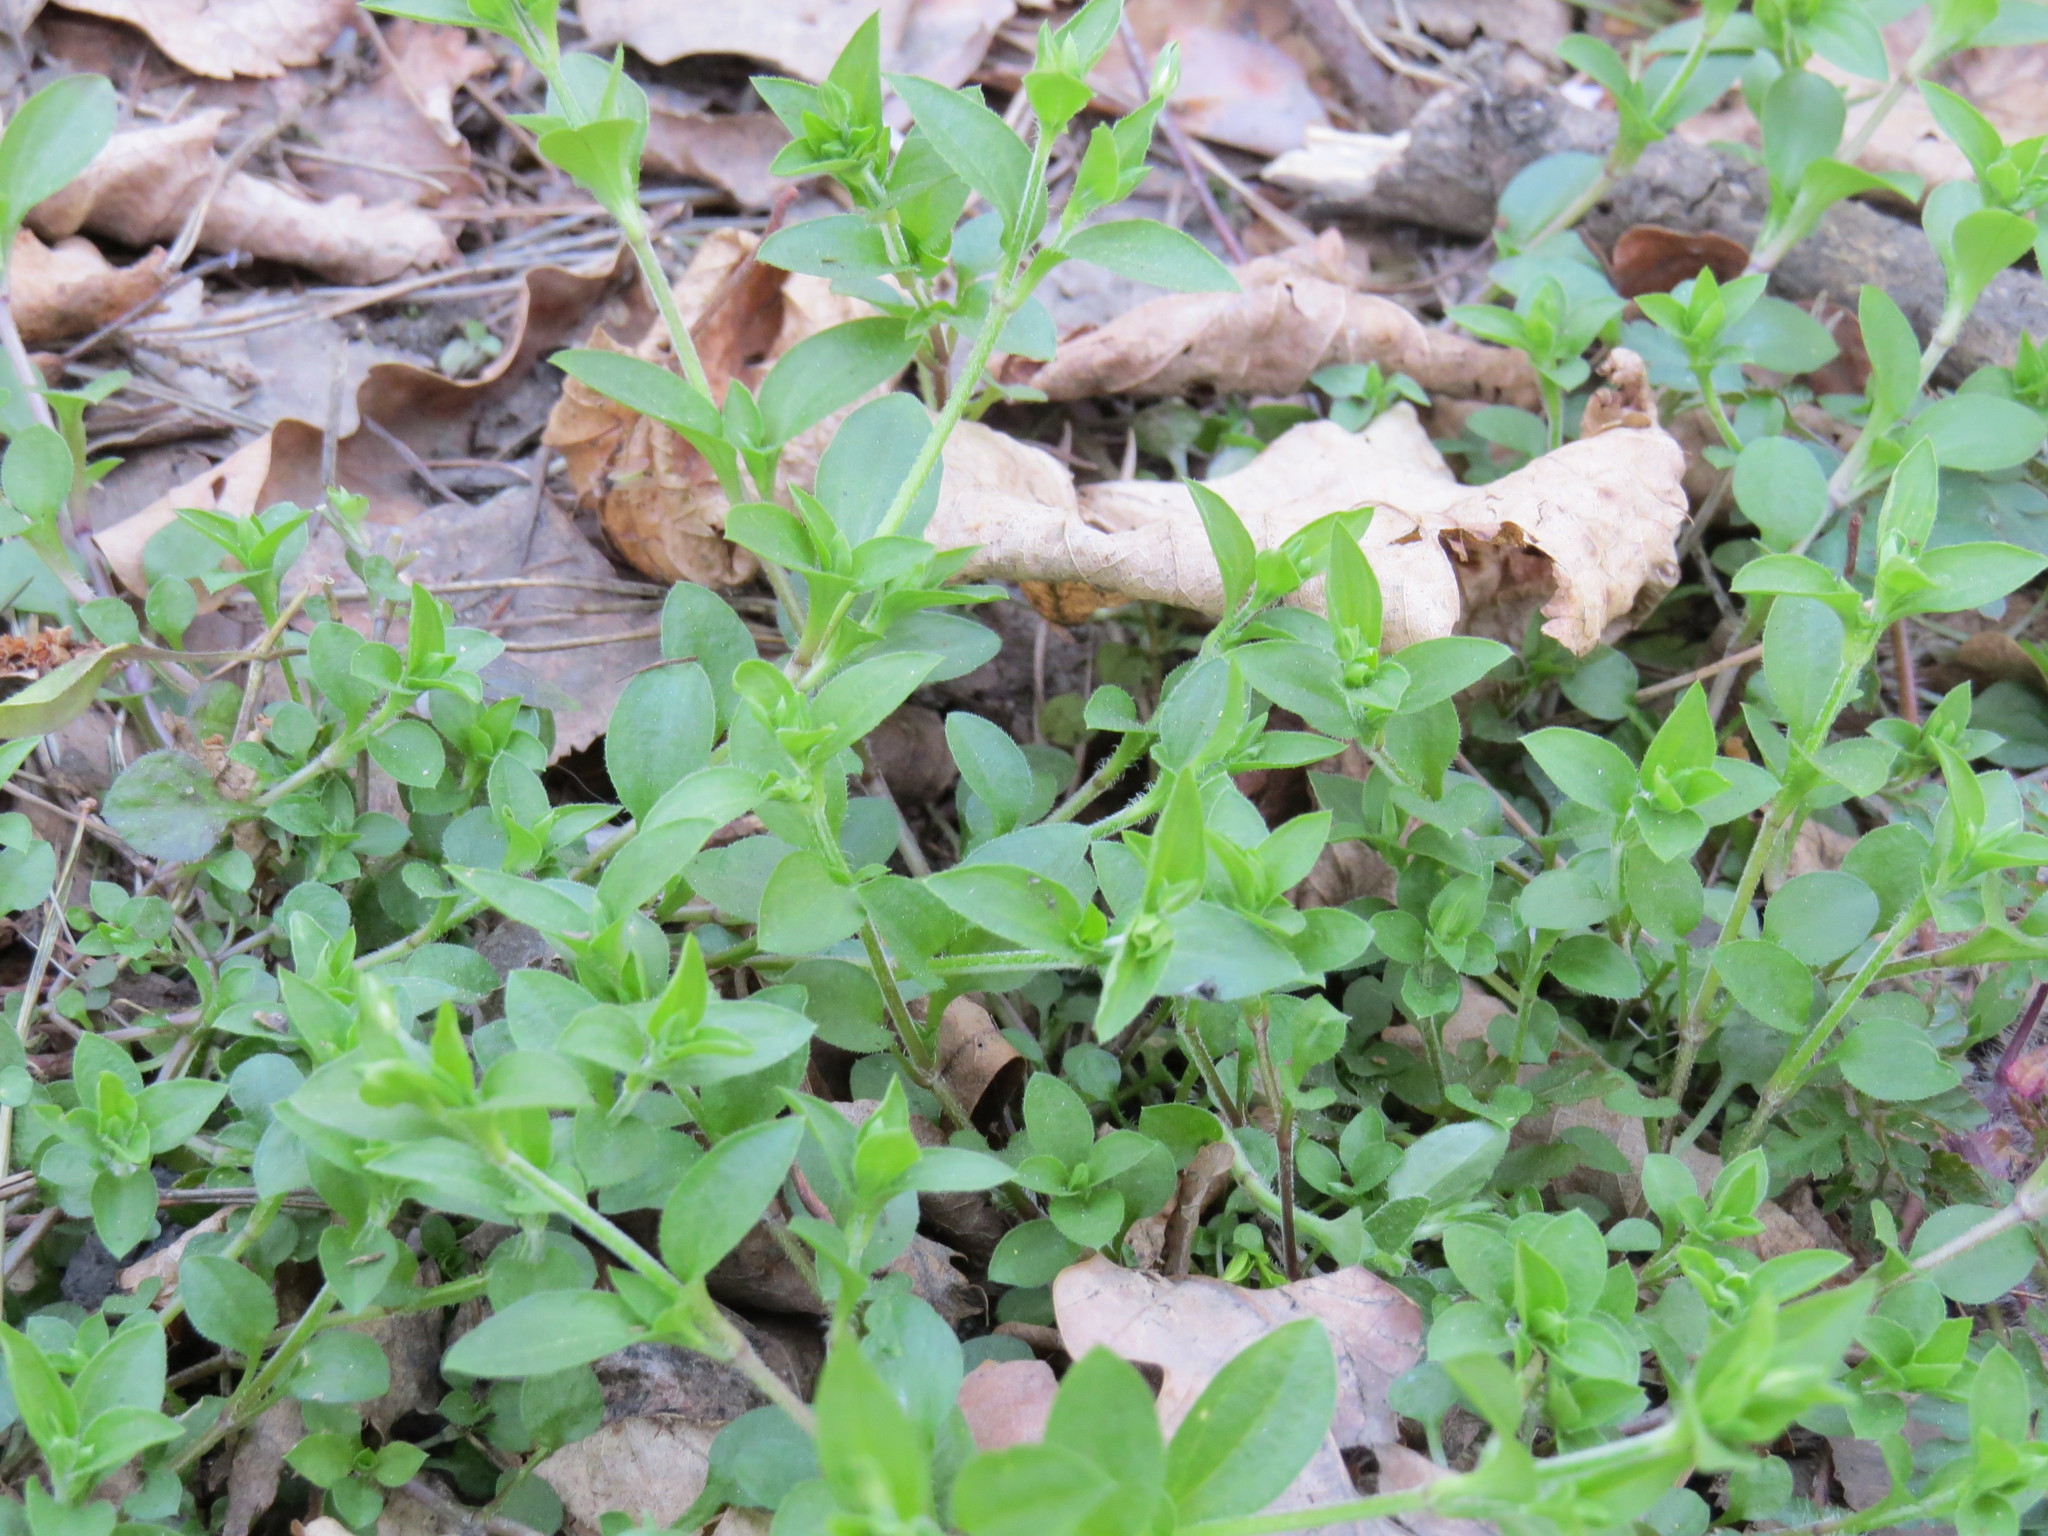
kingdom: Plantae
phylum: Tracheophyta
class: Magnoliopsida
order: Caryophyllales
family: Caryophyllaceae
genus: Moehringia
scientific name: Moehringia trinervia
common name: Three-nerved sandwort
